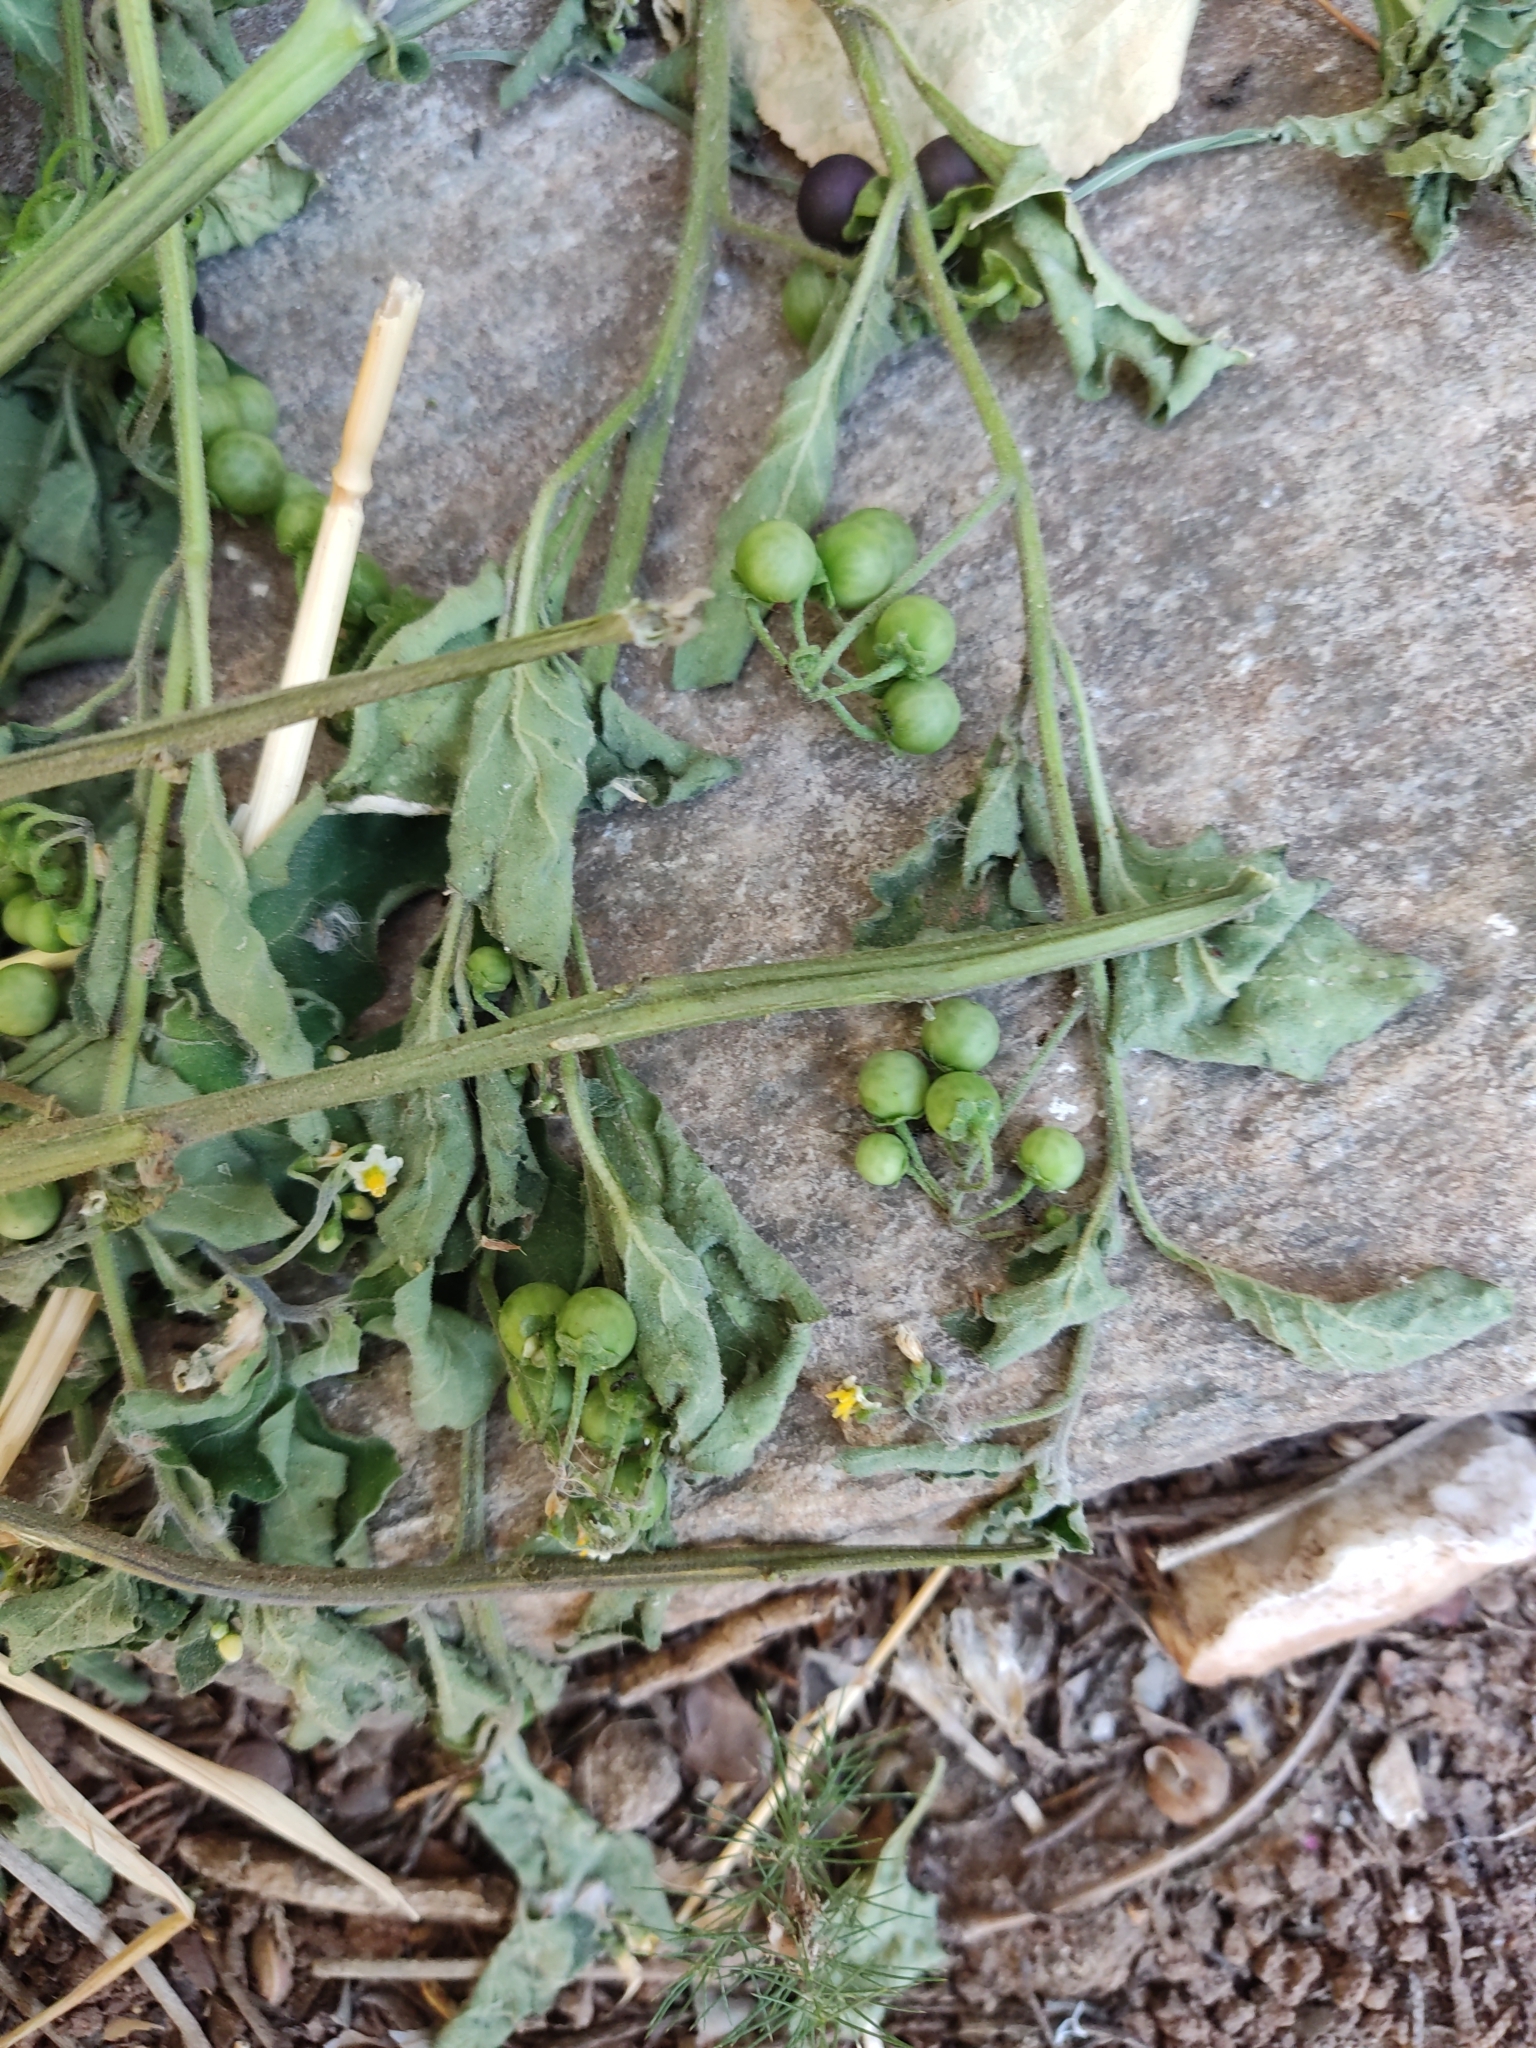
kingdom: Plantae
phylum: Tracheophyta
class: Magnoliopsida
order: Solanales
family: Solanaceae
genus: Solanum
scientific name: Solanum nigrum
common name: Black nightshade
